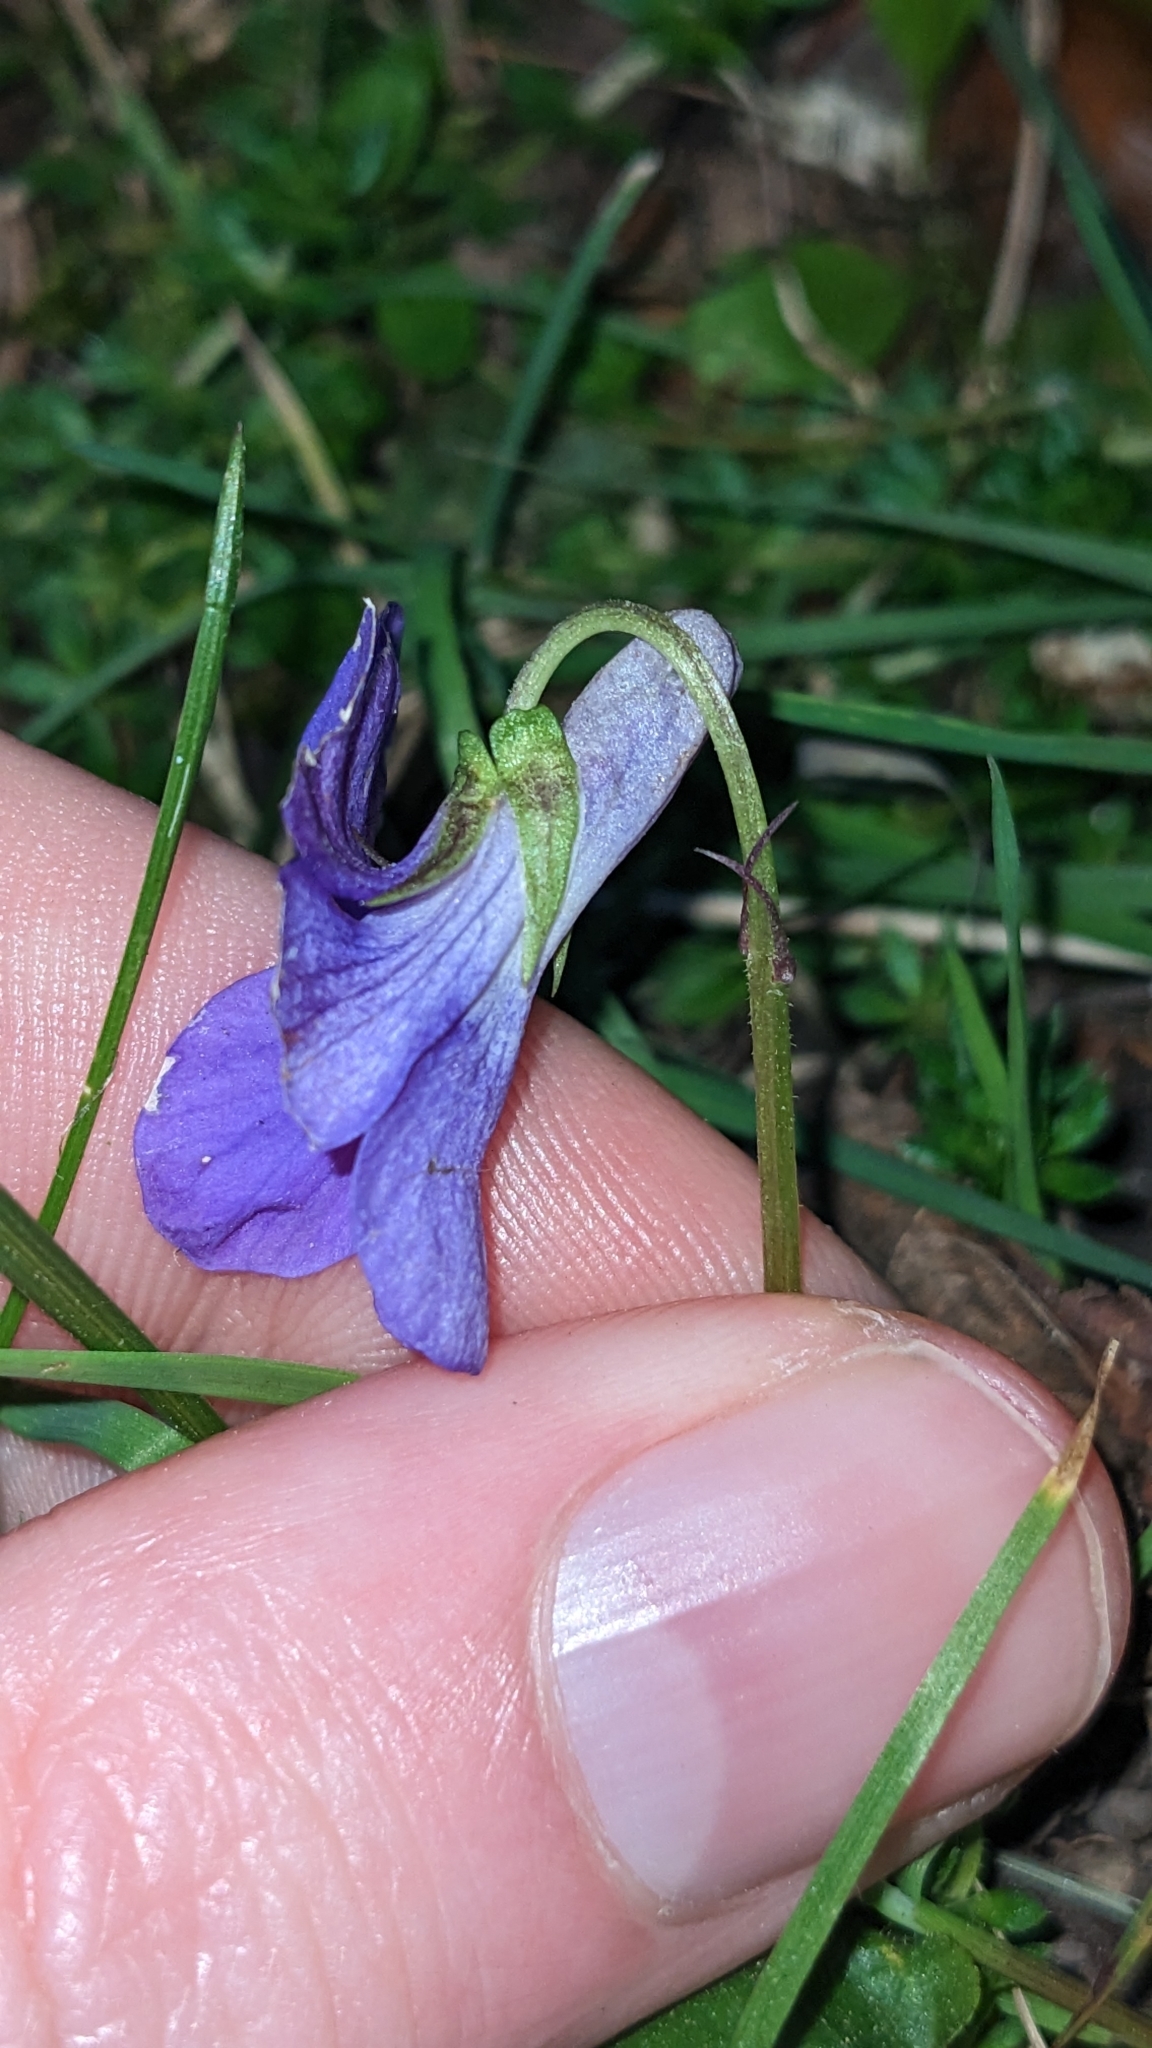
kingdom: Plantae
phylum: Tracheophyta
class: Magnoliopsida
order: Malpighiales
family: Violaceae
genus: Viola
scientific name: Viola riviniana
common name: Common dog-violet
